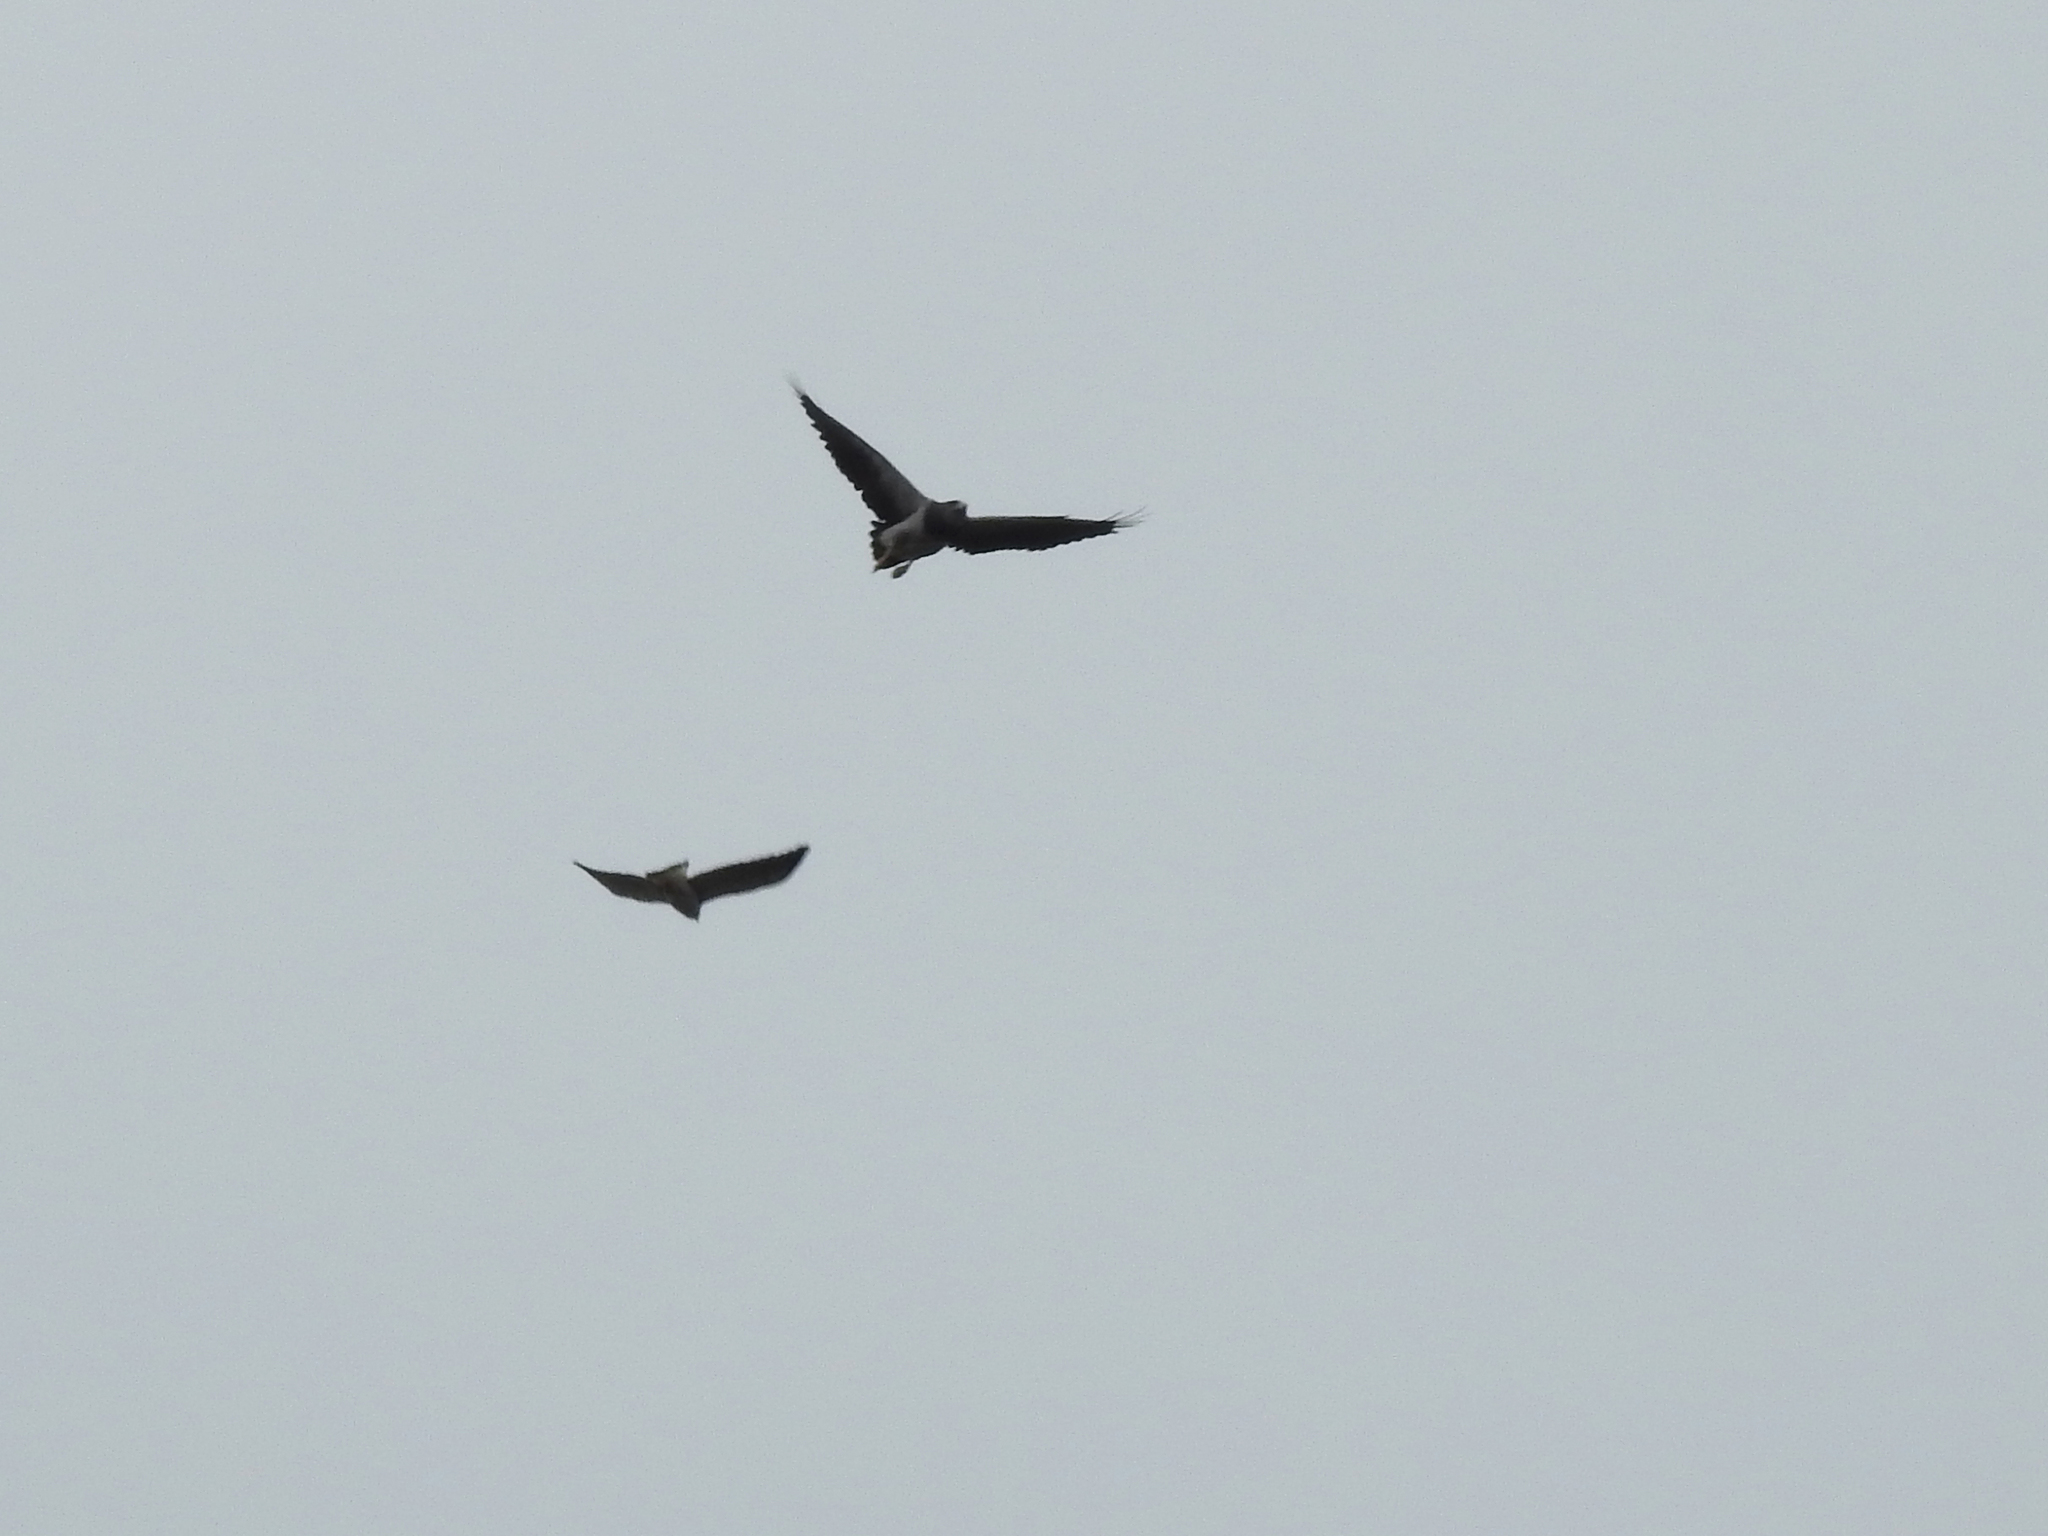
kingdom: Animalia
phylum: Chordata
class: Aves
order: Accipitriformes
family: Accipitridae
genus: Geranoaetus
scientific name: Geranoaetus melanoleucus
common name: Black-chested buzzard-eagle
